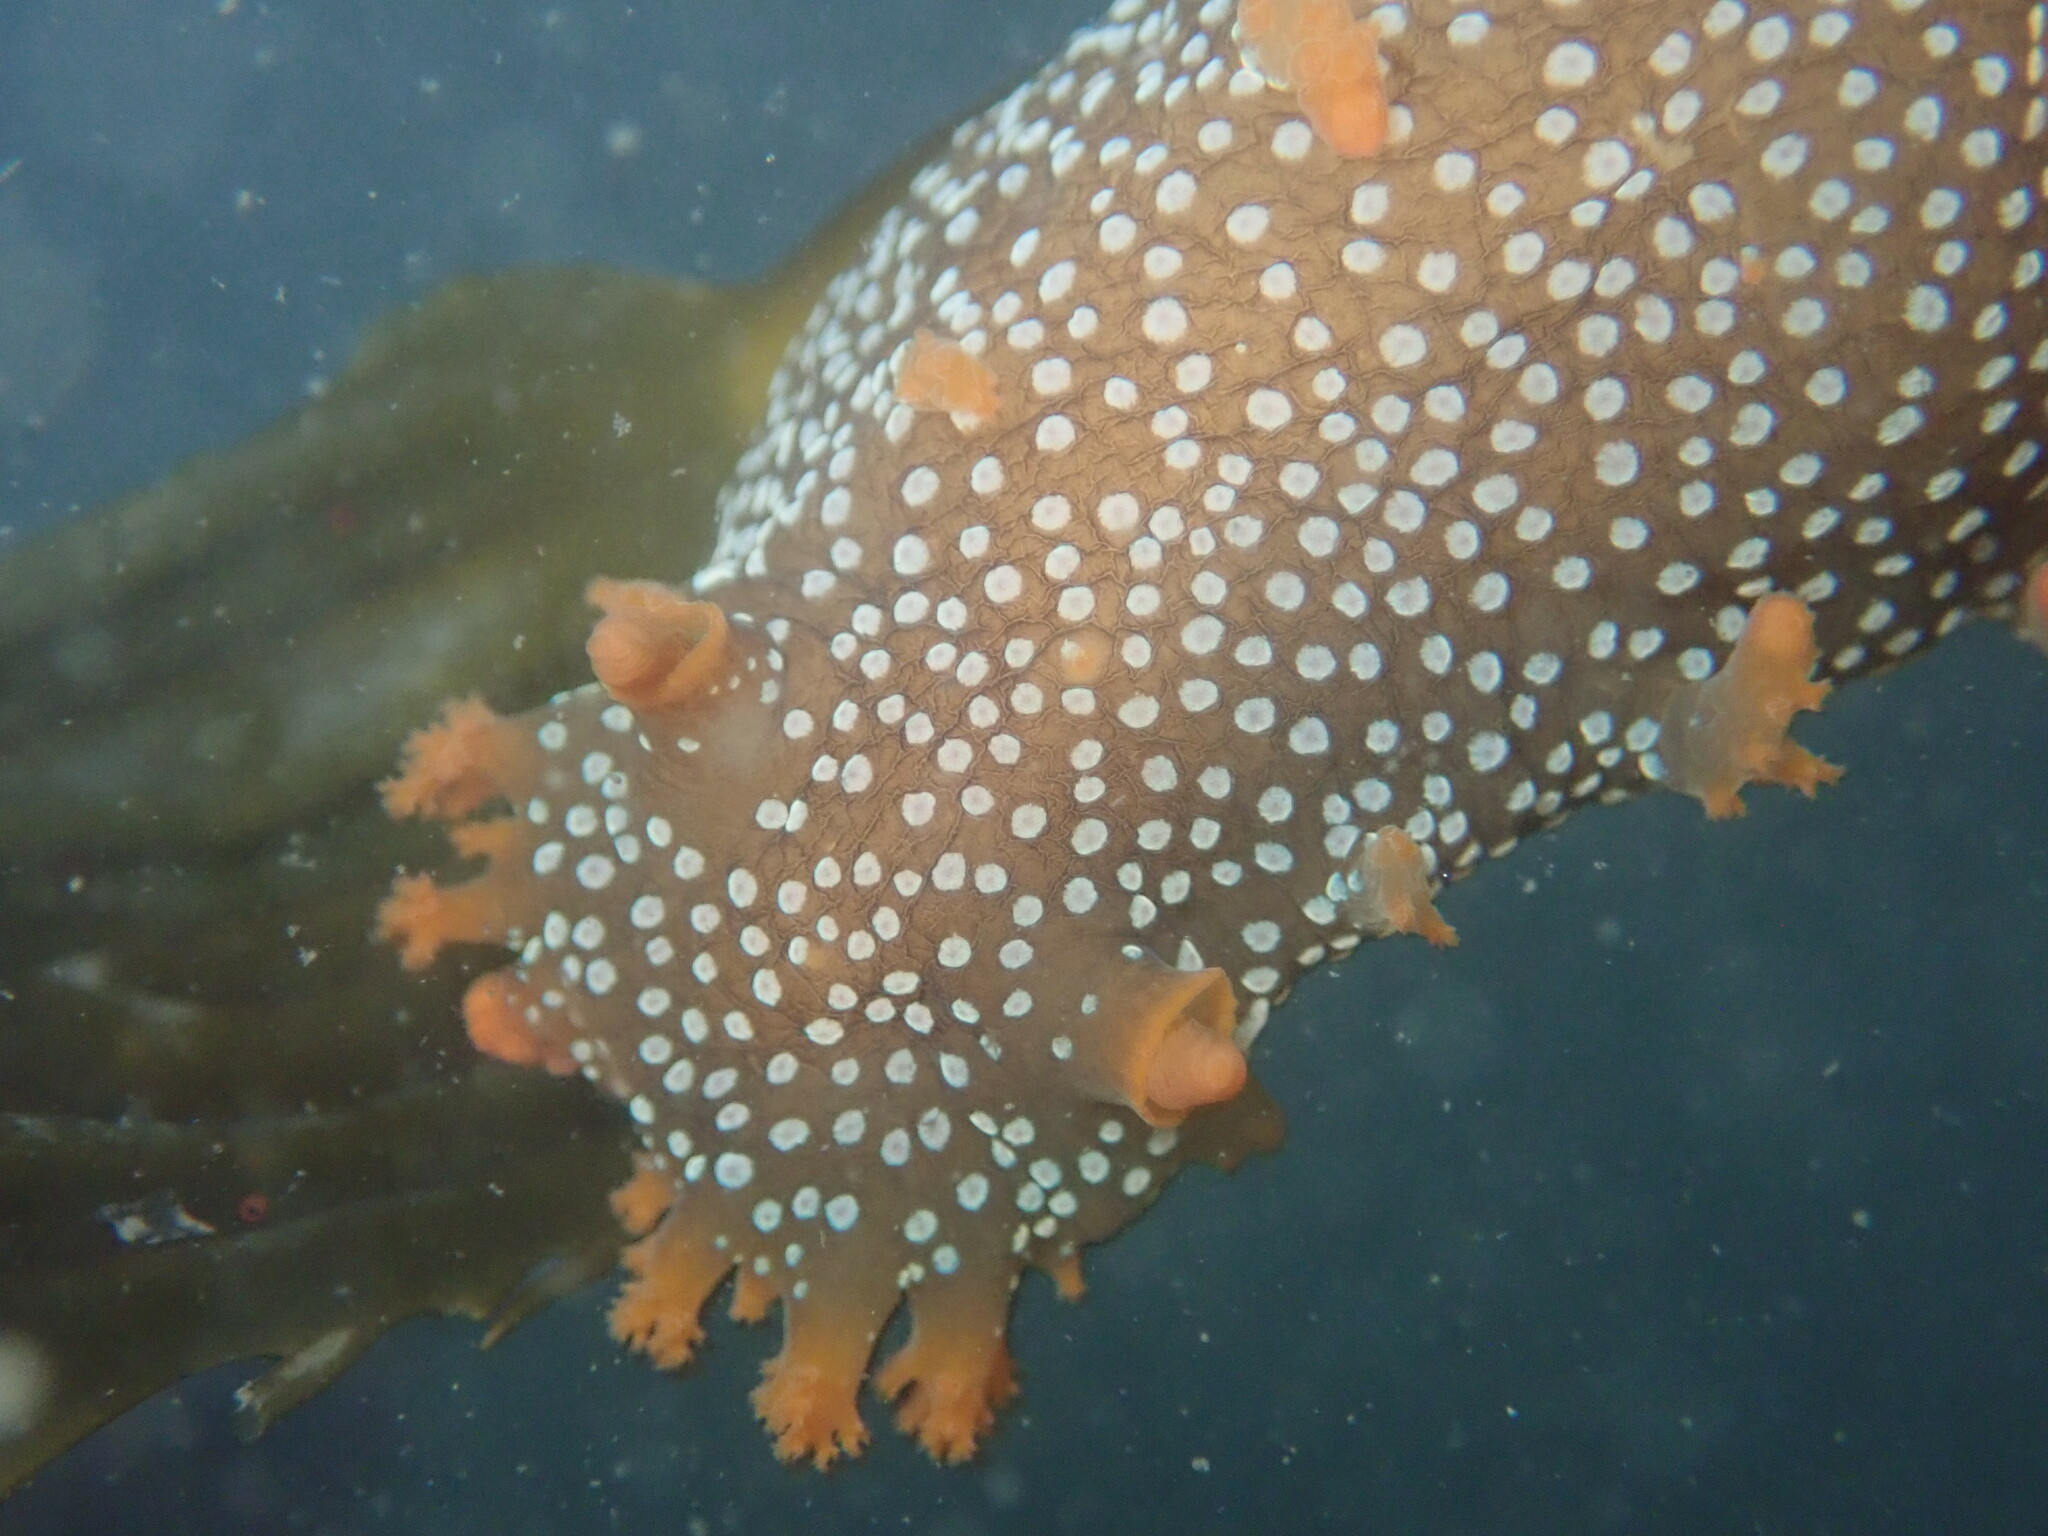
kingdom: Animalia
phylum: Mollusca
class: Gastropoda
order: Nudibranchia
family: Polyceridae
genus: Triopha
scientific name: Triopha maculata
